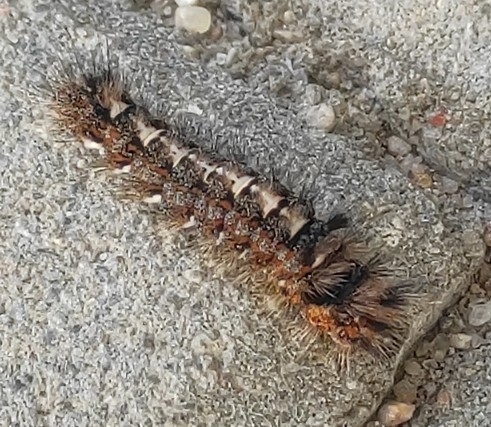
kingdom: Animalia
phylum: Arthropoda
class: Insecta
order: Lepidoptera
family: Noctuidae
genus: Panthea
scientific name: Panthea coenobita
